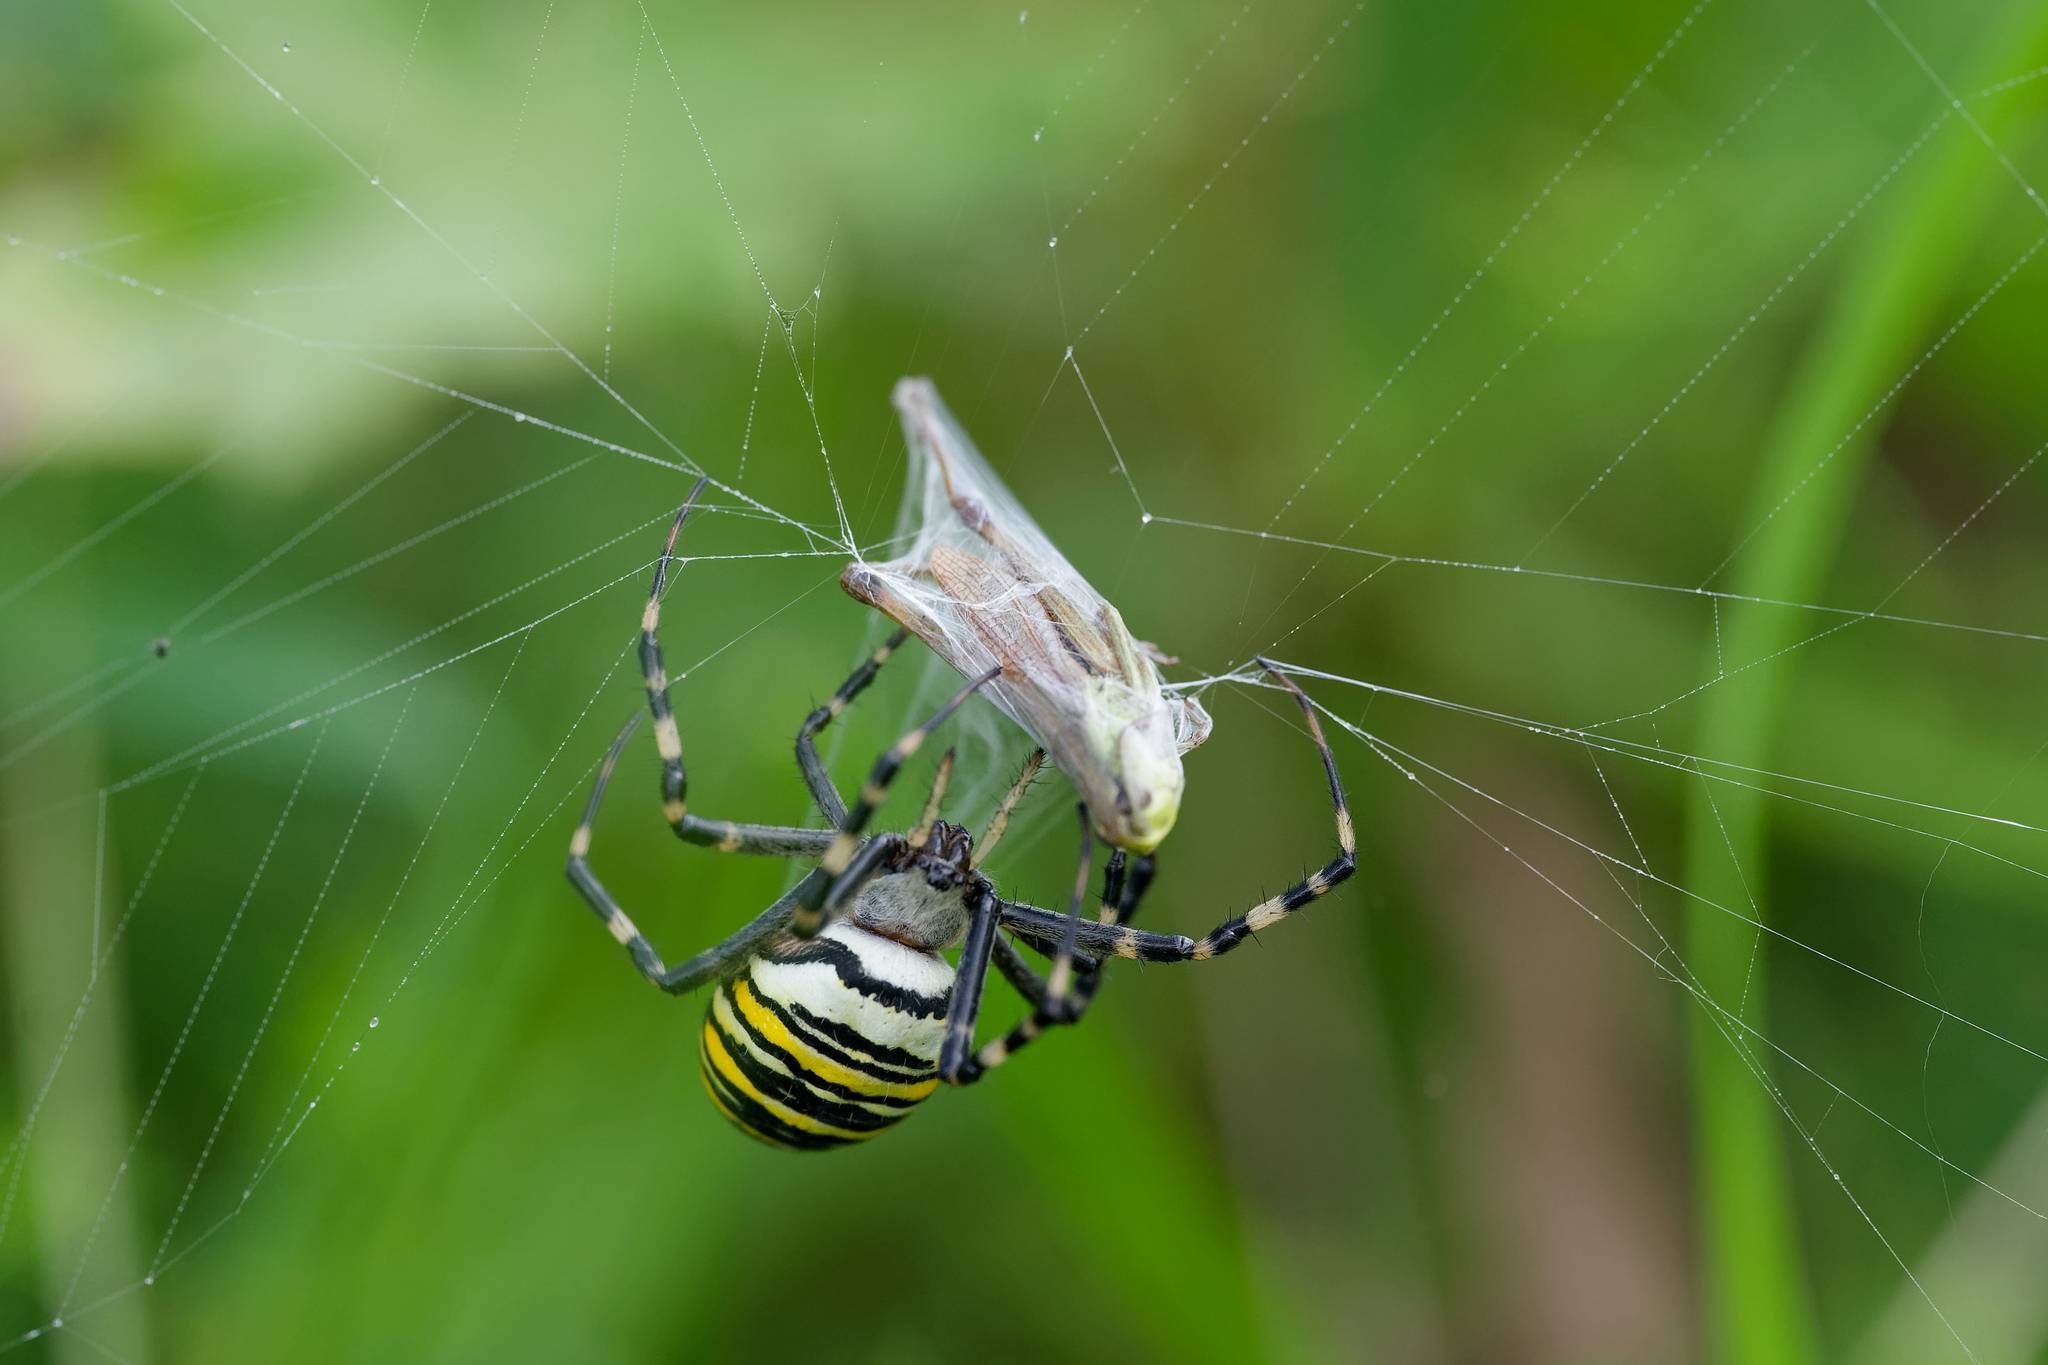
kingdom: Animalia
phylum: Arthropoda
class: Arachnida
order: Araneae
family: Araneidae
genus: Argiope
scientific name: Argiope bruennichi
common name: Wasp spider
